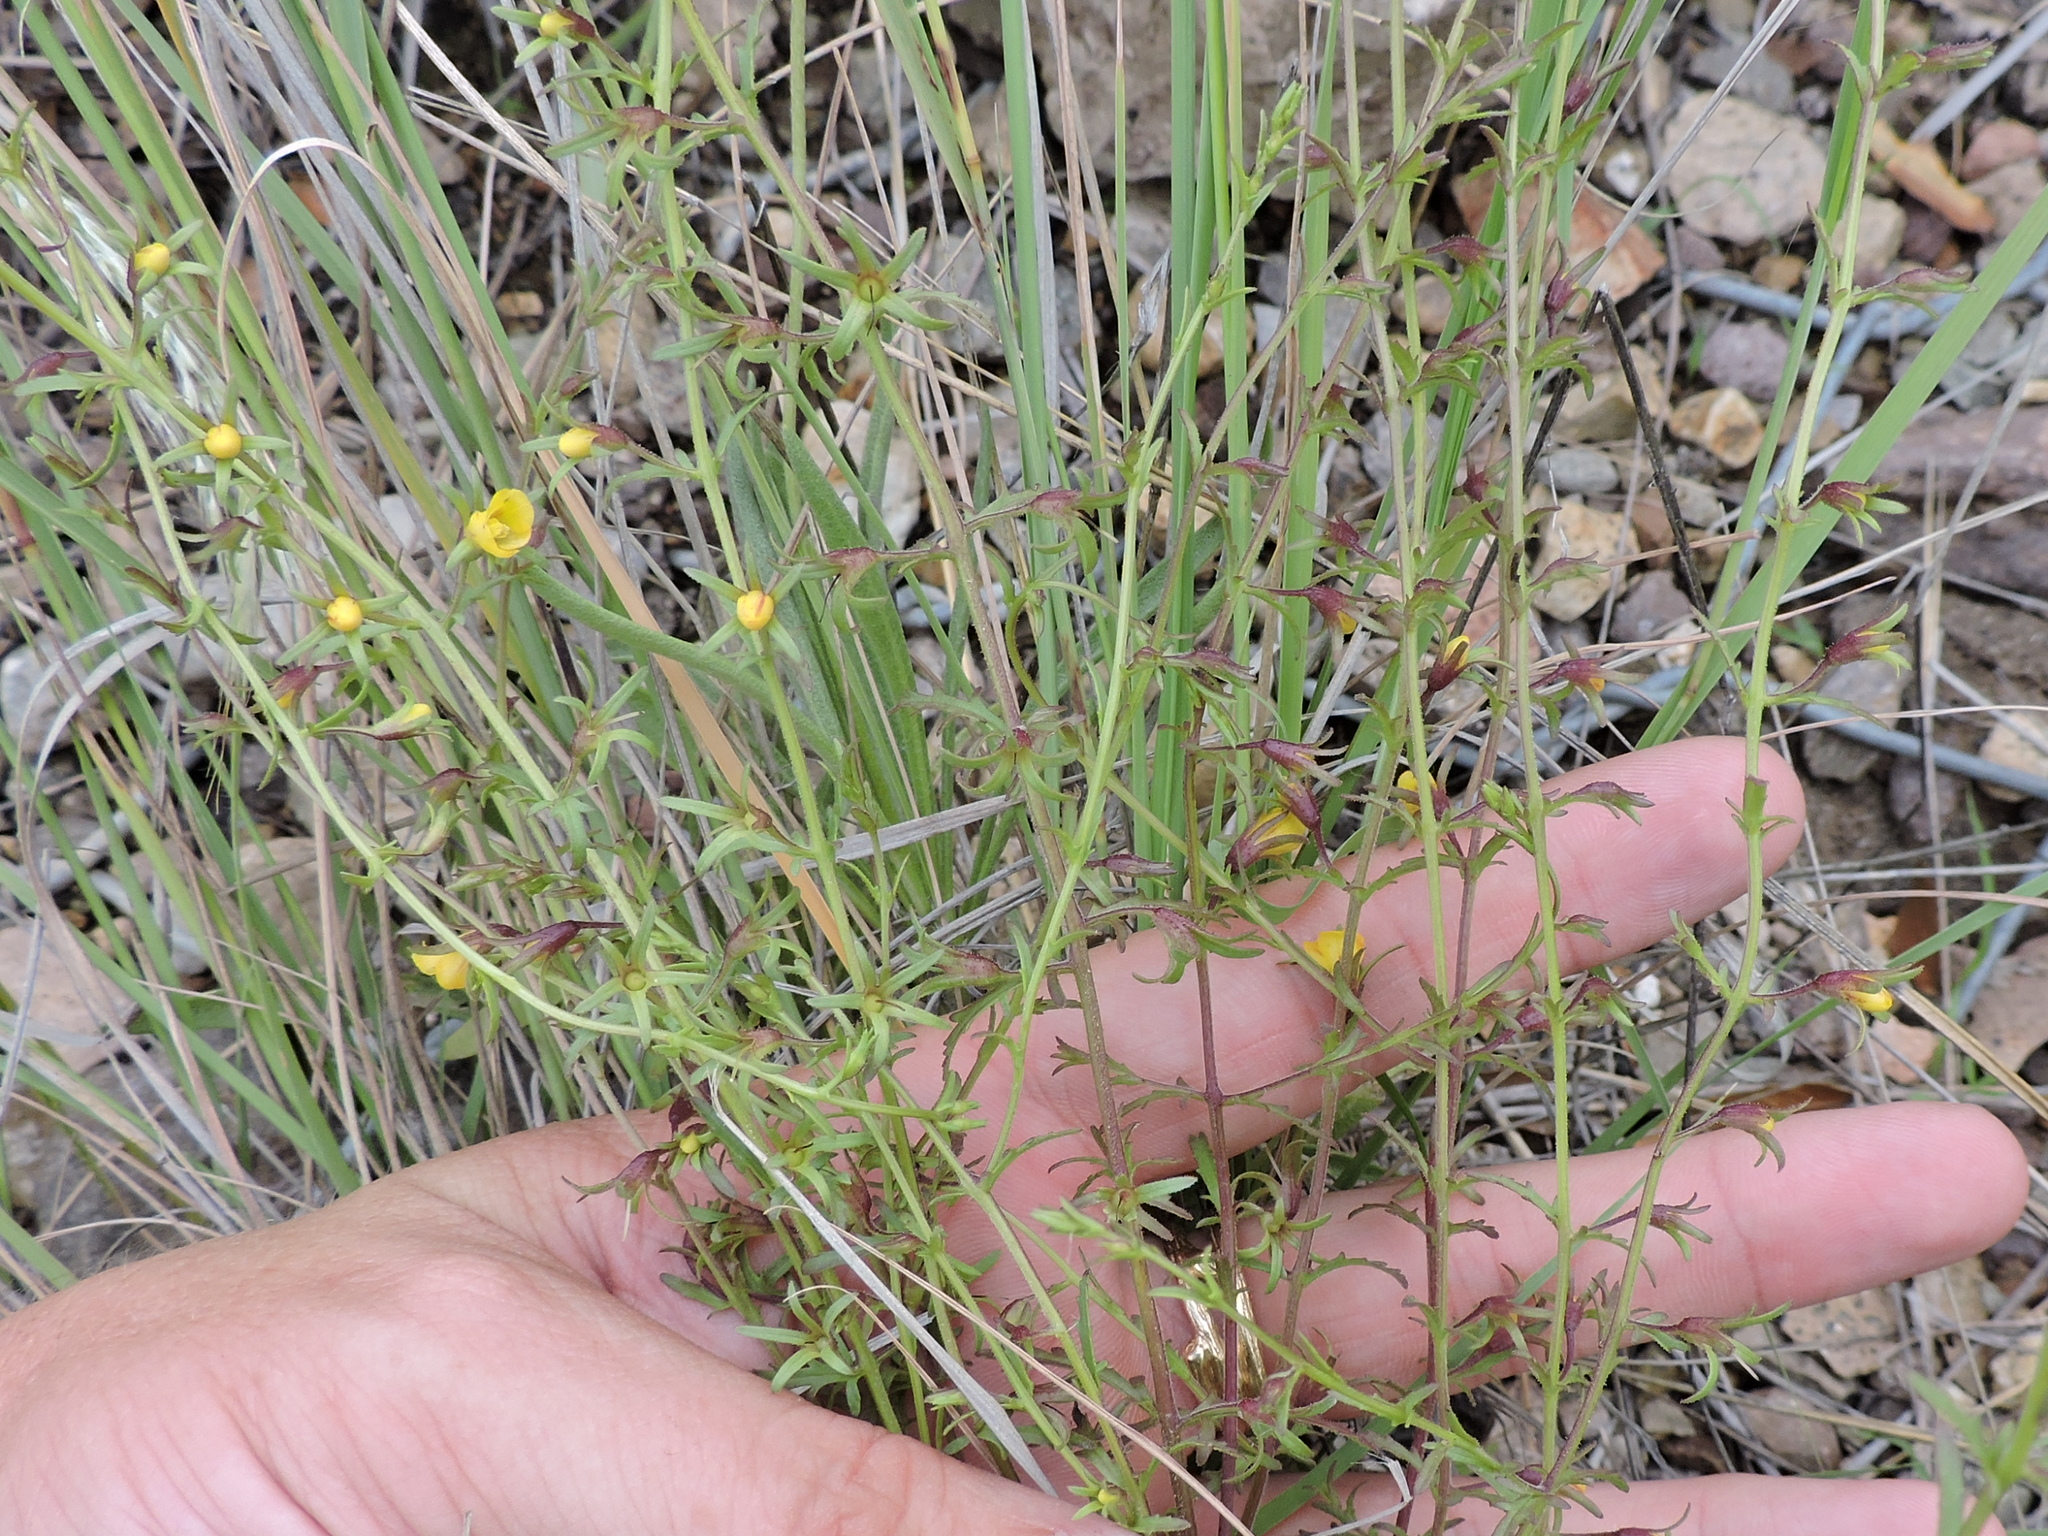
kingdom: Plantae
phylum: Tracheophyta
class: Magnoliopsida
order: Lamiales
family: Orobanchaceae
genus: Seymeria
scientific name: Seymeria scabra
